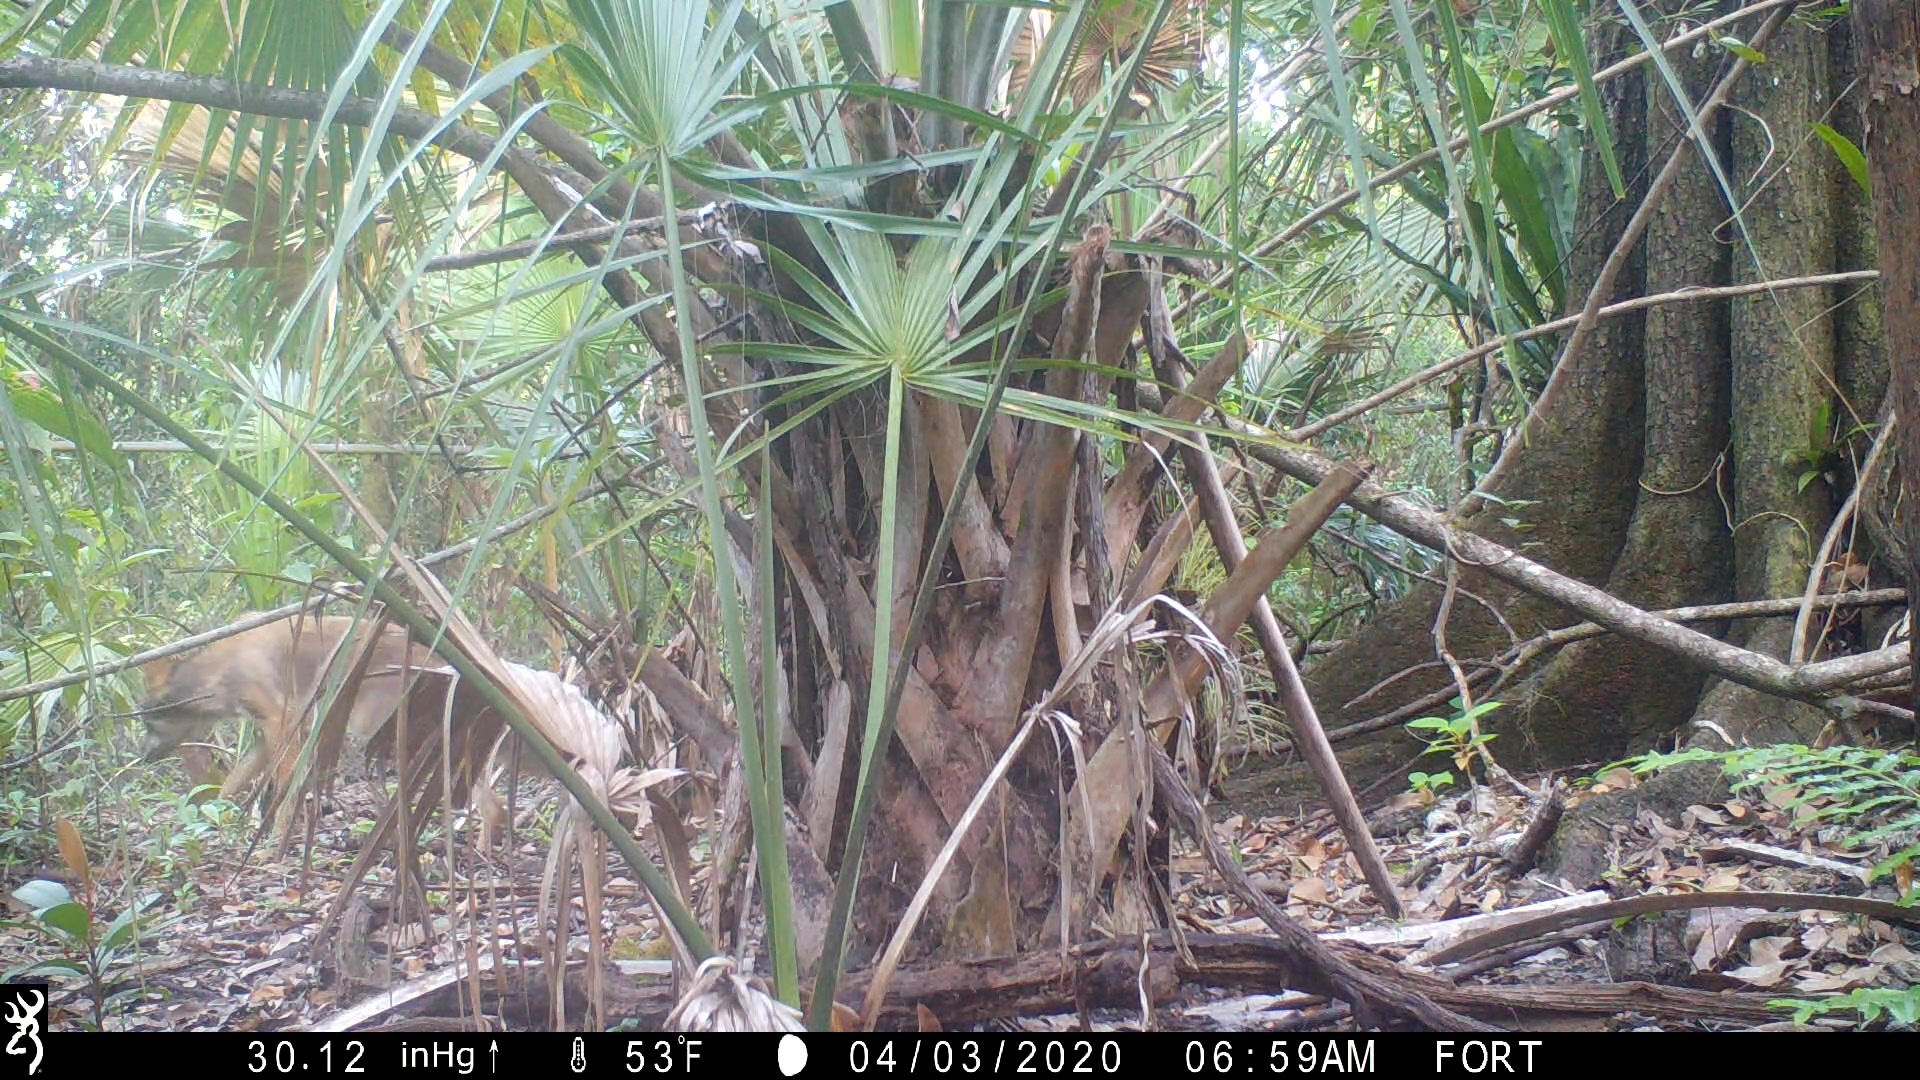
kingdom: Animalia
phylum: Chordata
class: Mammalia
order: Carnivora
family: Canidae
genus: Canis
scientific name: Canis latrans
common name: Coyote
